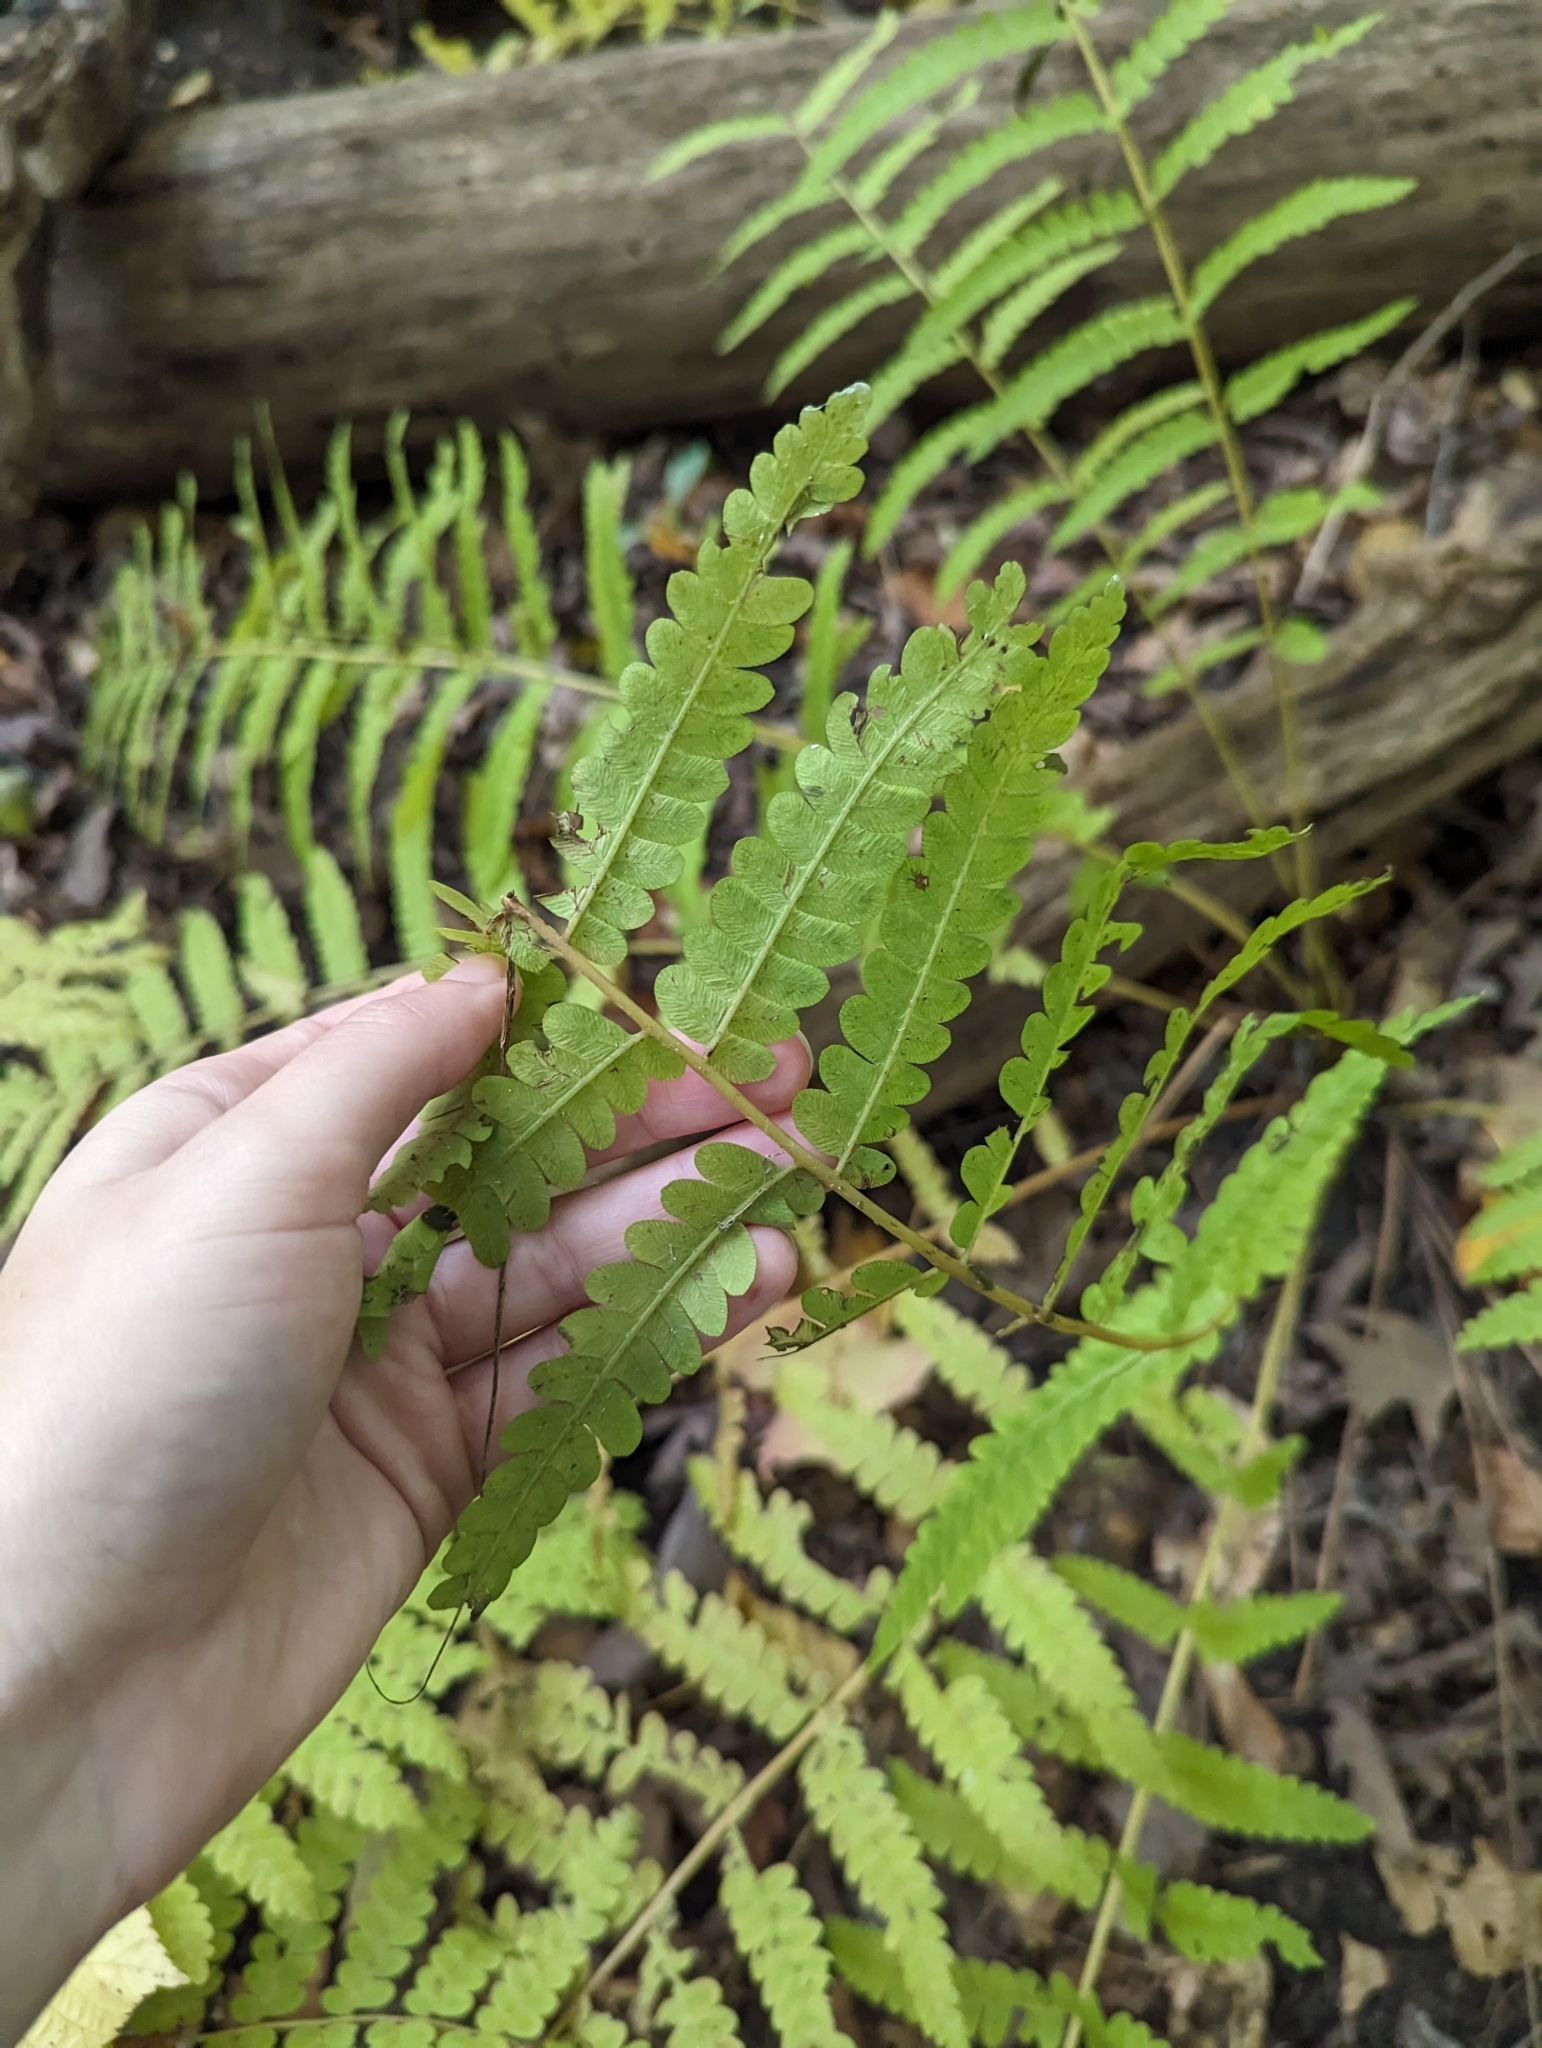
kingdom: Plantae
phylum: Tracheophyta
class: Polypodiopsida
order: Osmundales
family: Osmundaceae
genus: Claytosmunda
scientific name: Claytosmunda claytoniana
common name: Clayton's fern
